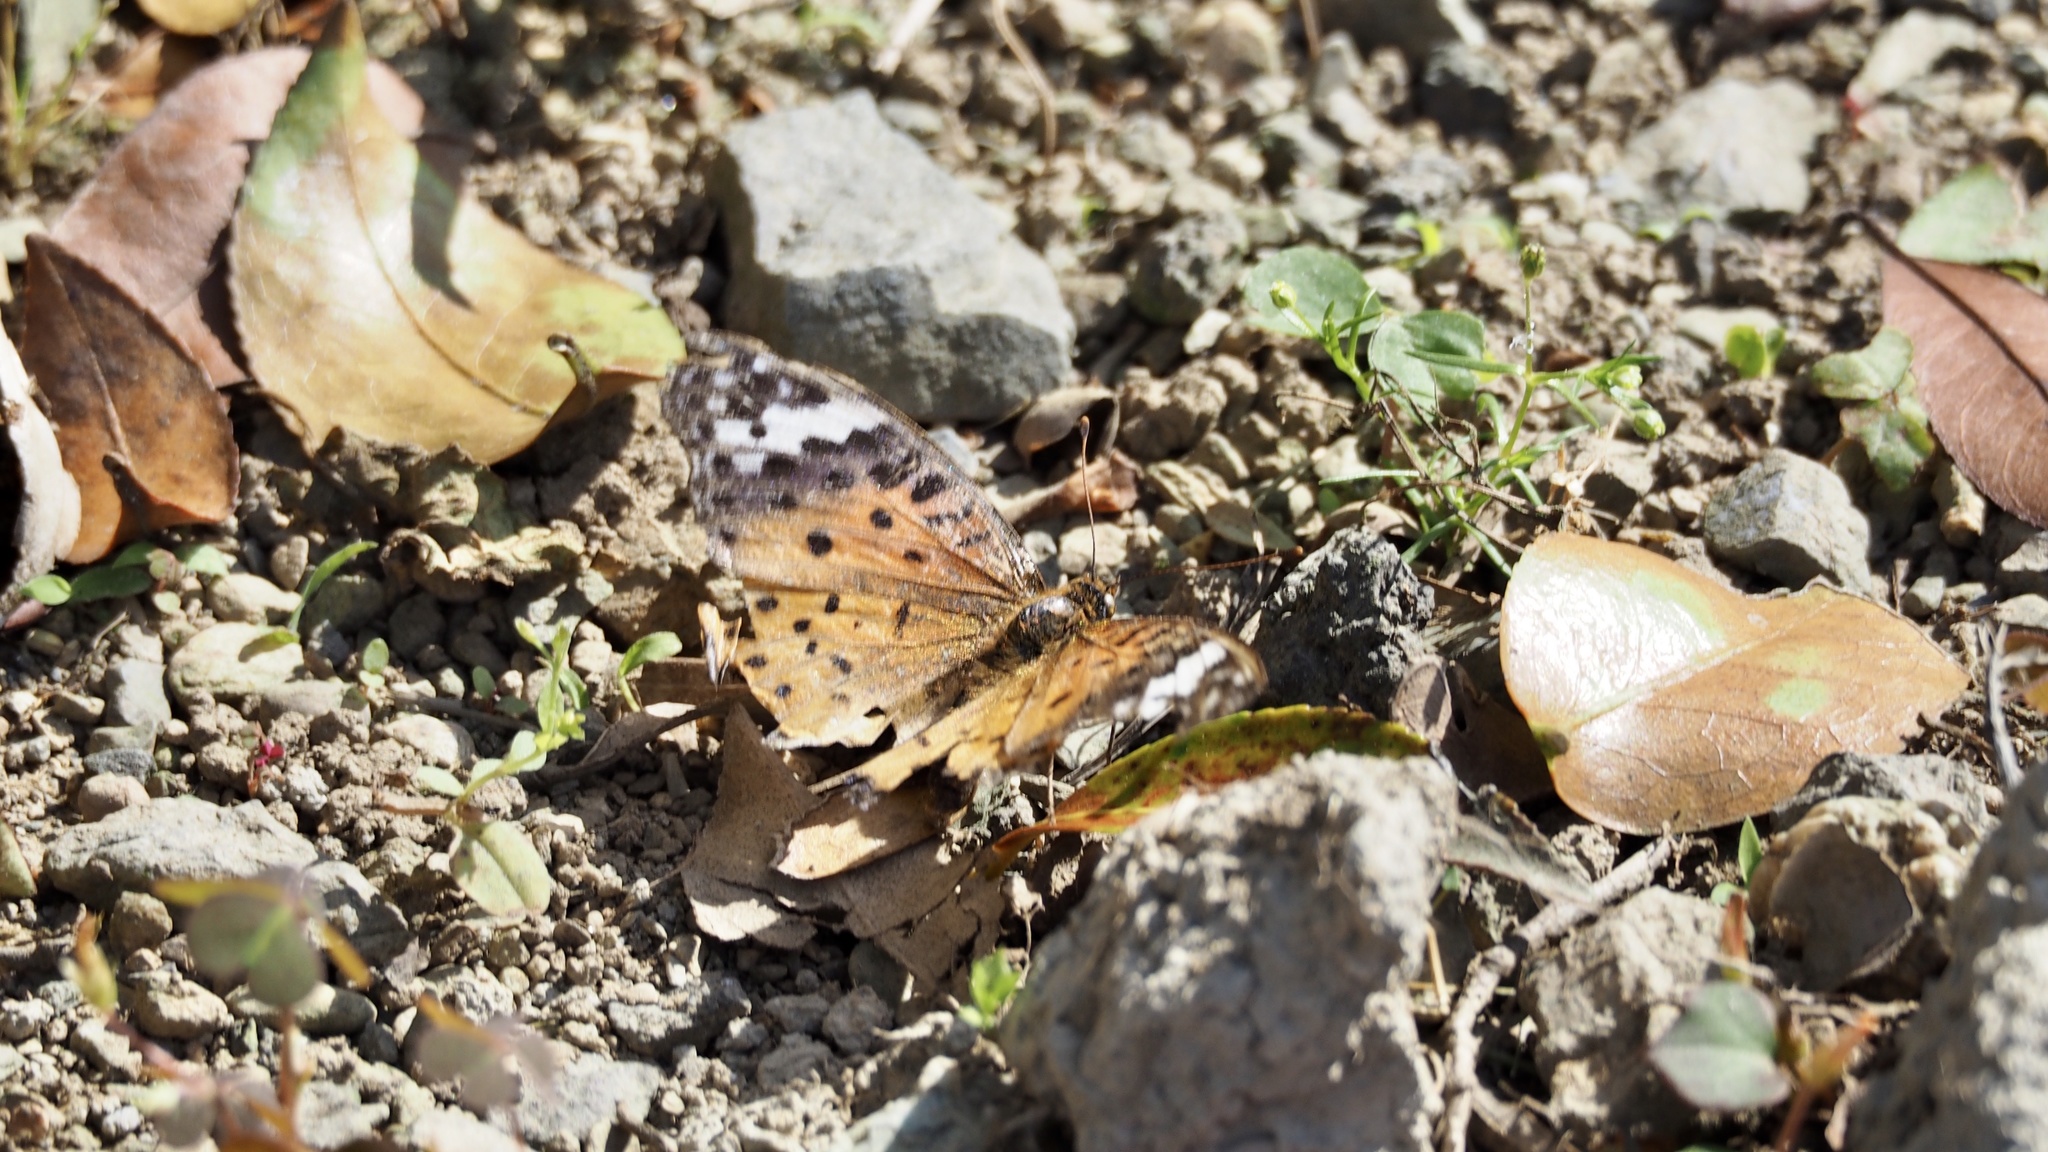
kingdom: Animalia
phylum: Arthropoda
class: Insecta
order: Lepidoptera
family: Nymphalidae
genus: Argynnis
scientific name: Argynnis hyperbius
